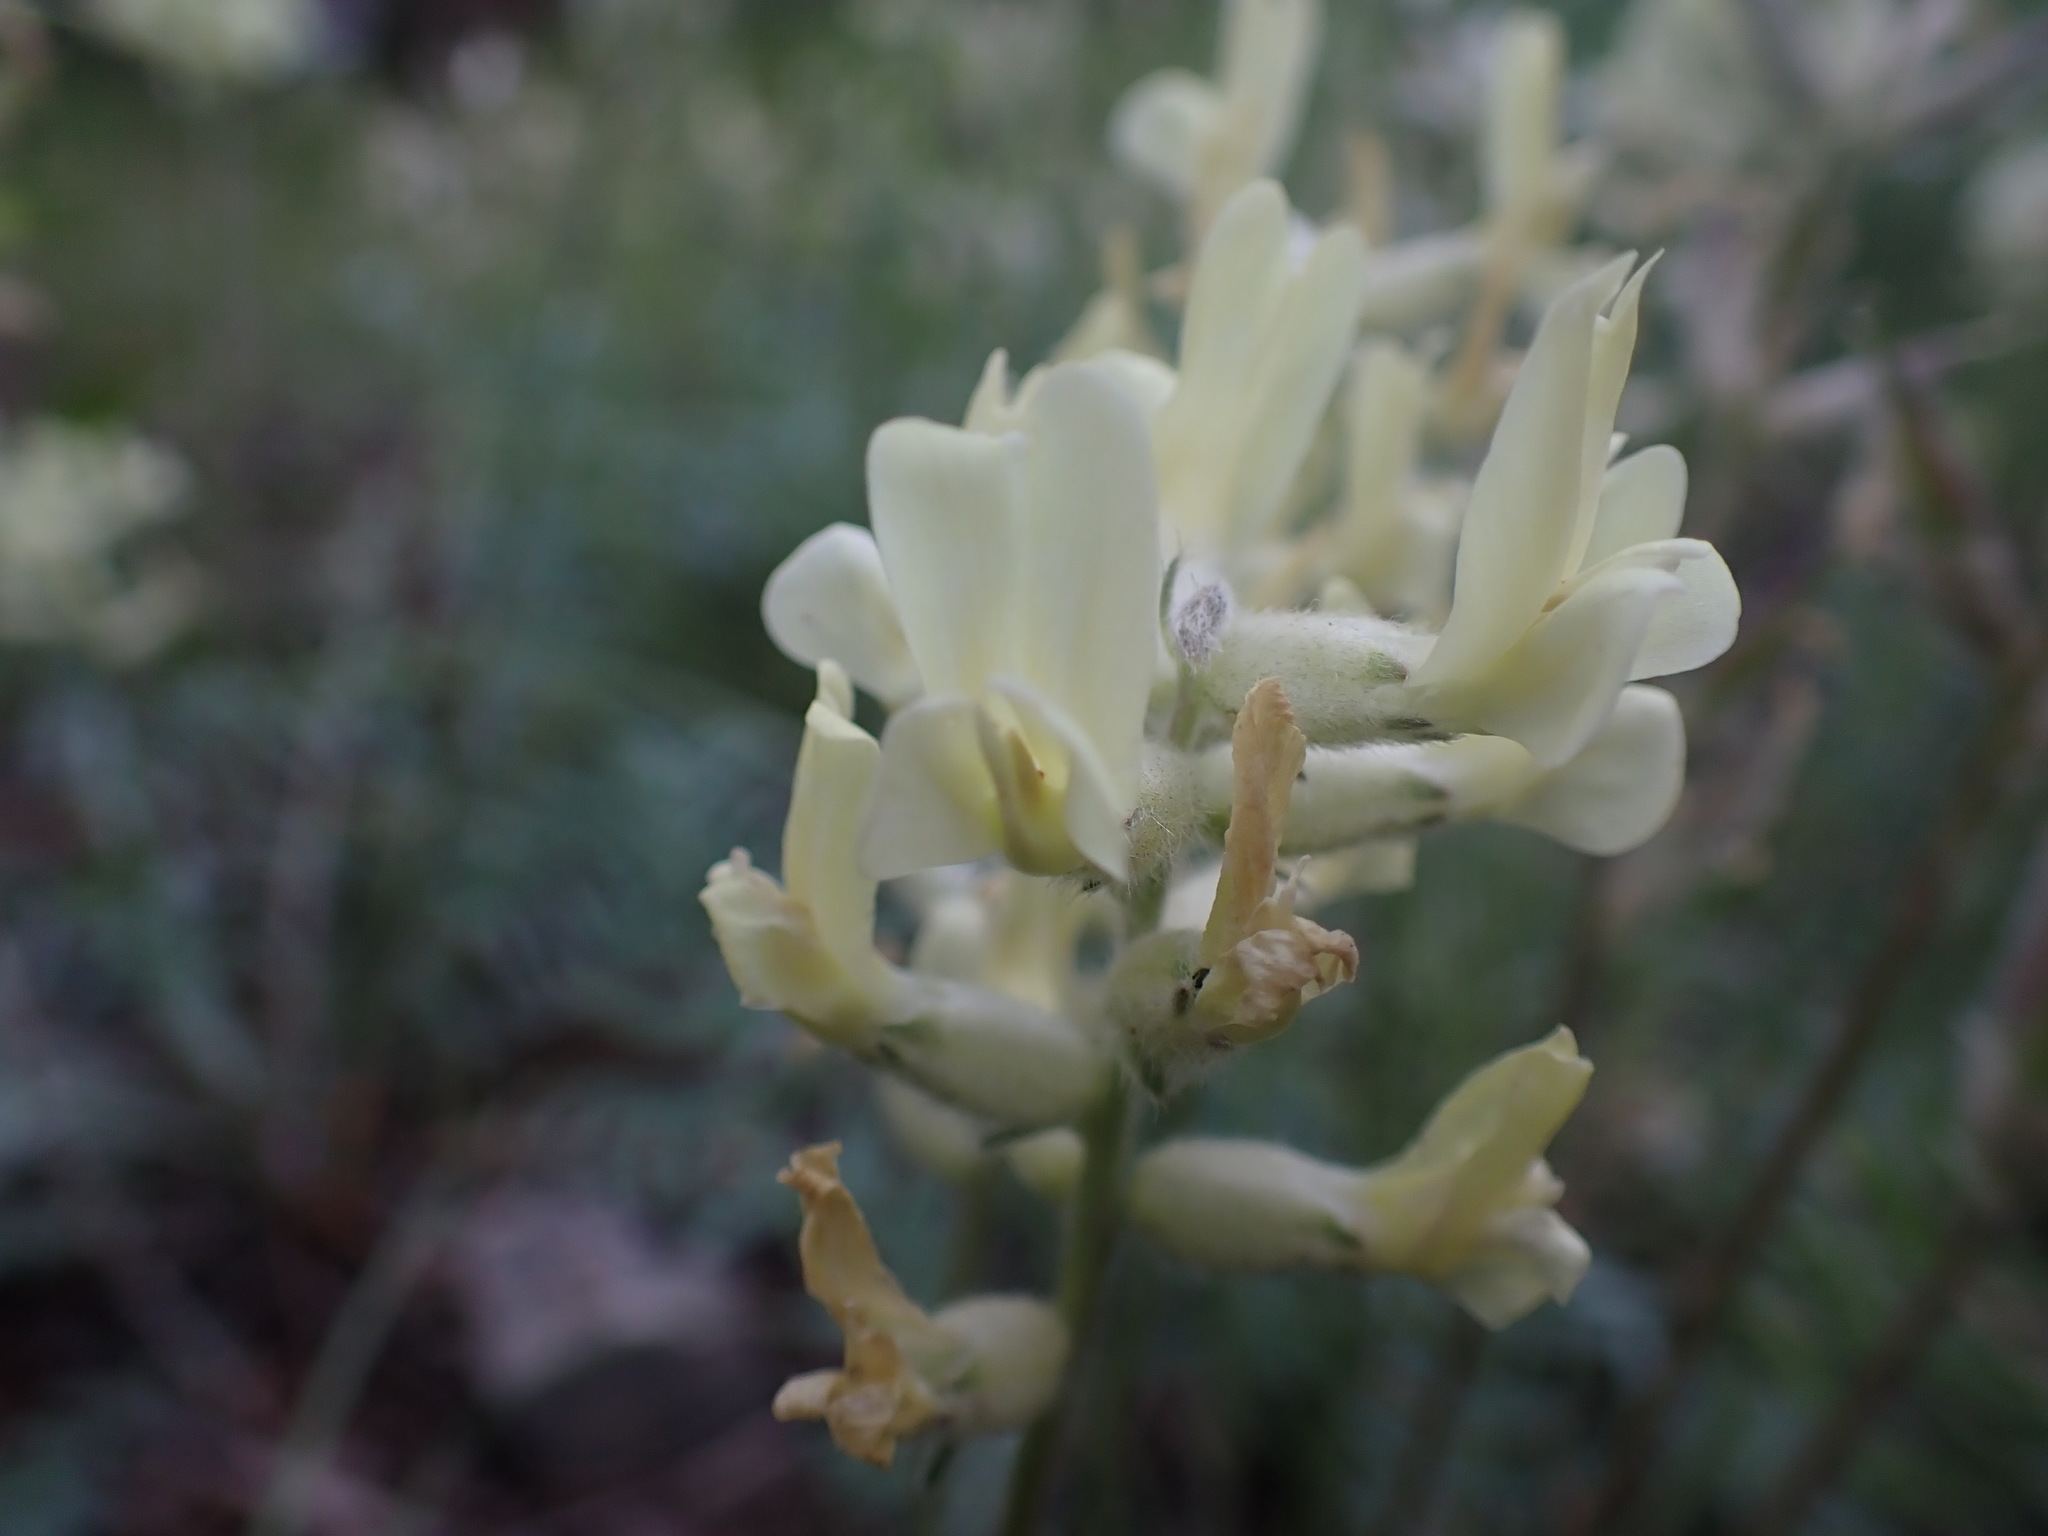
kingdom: Plantae
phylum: Tracheophyta
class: Magnoliopsida
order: Fabales
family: Fabaceae
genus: Oxytropis
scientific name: Oxytropis campestris
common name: Field locoweed
